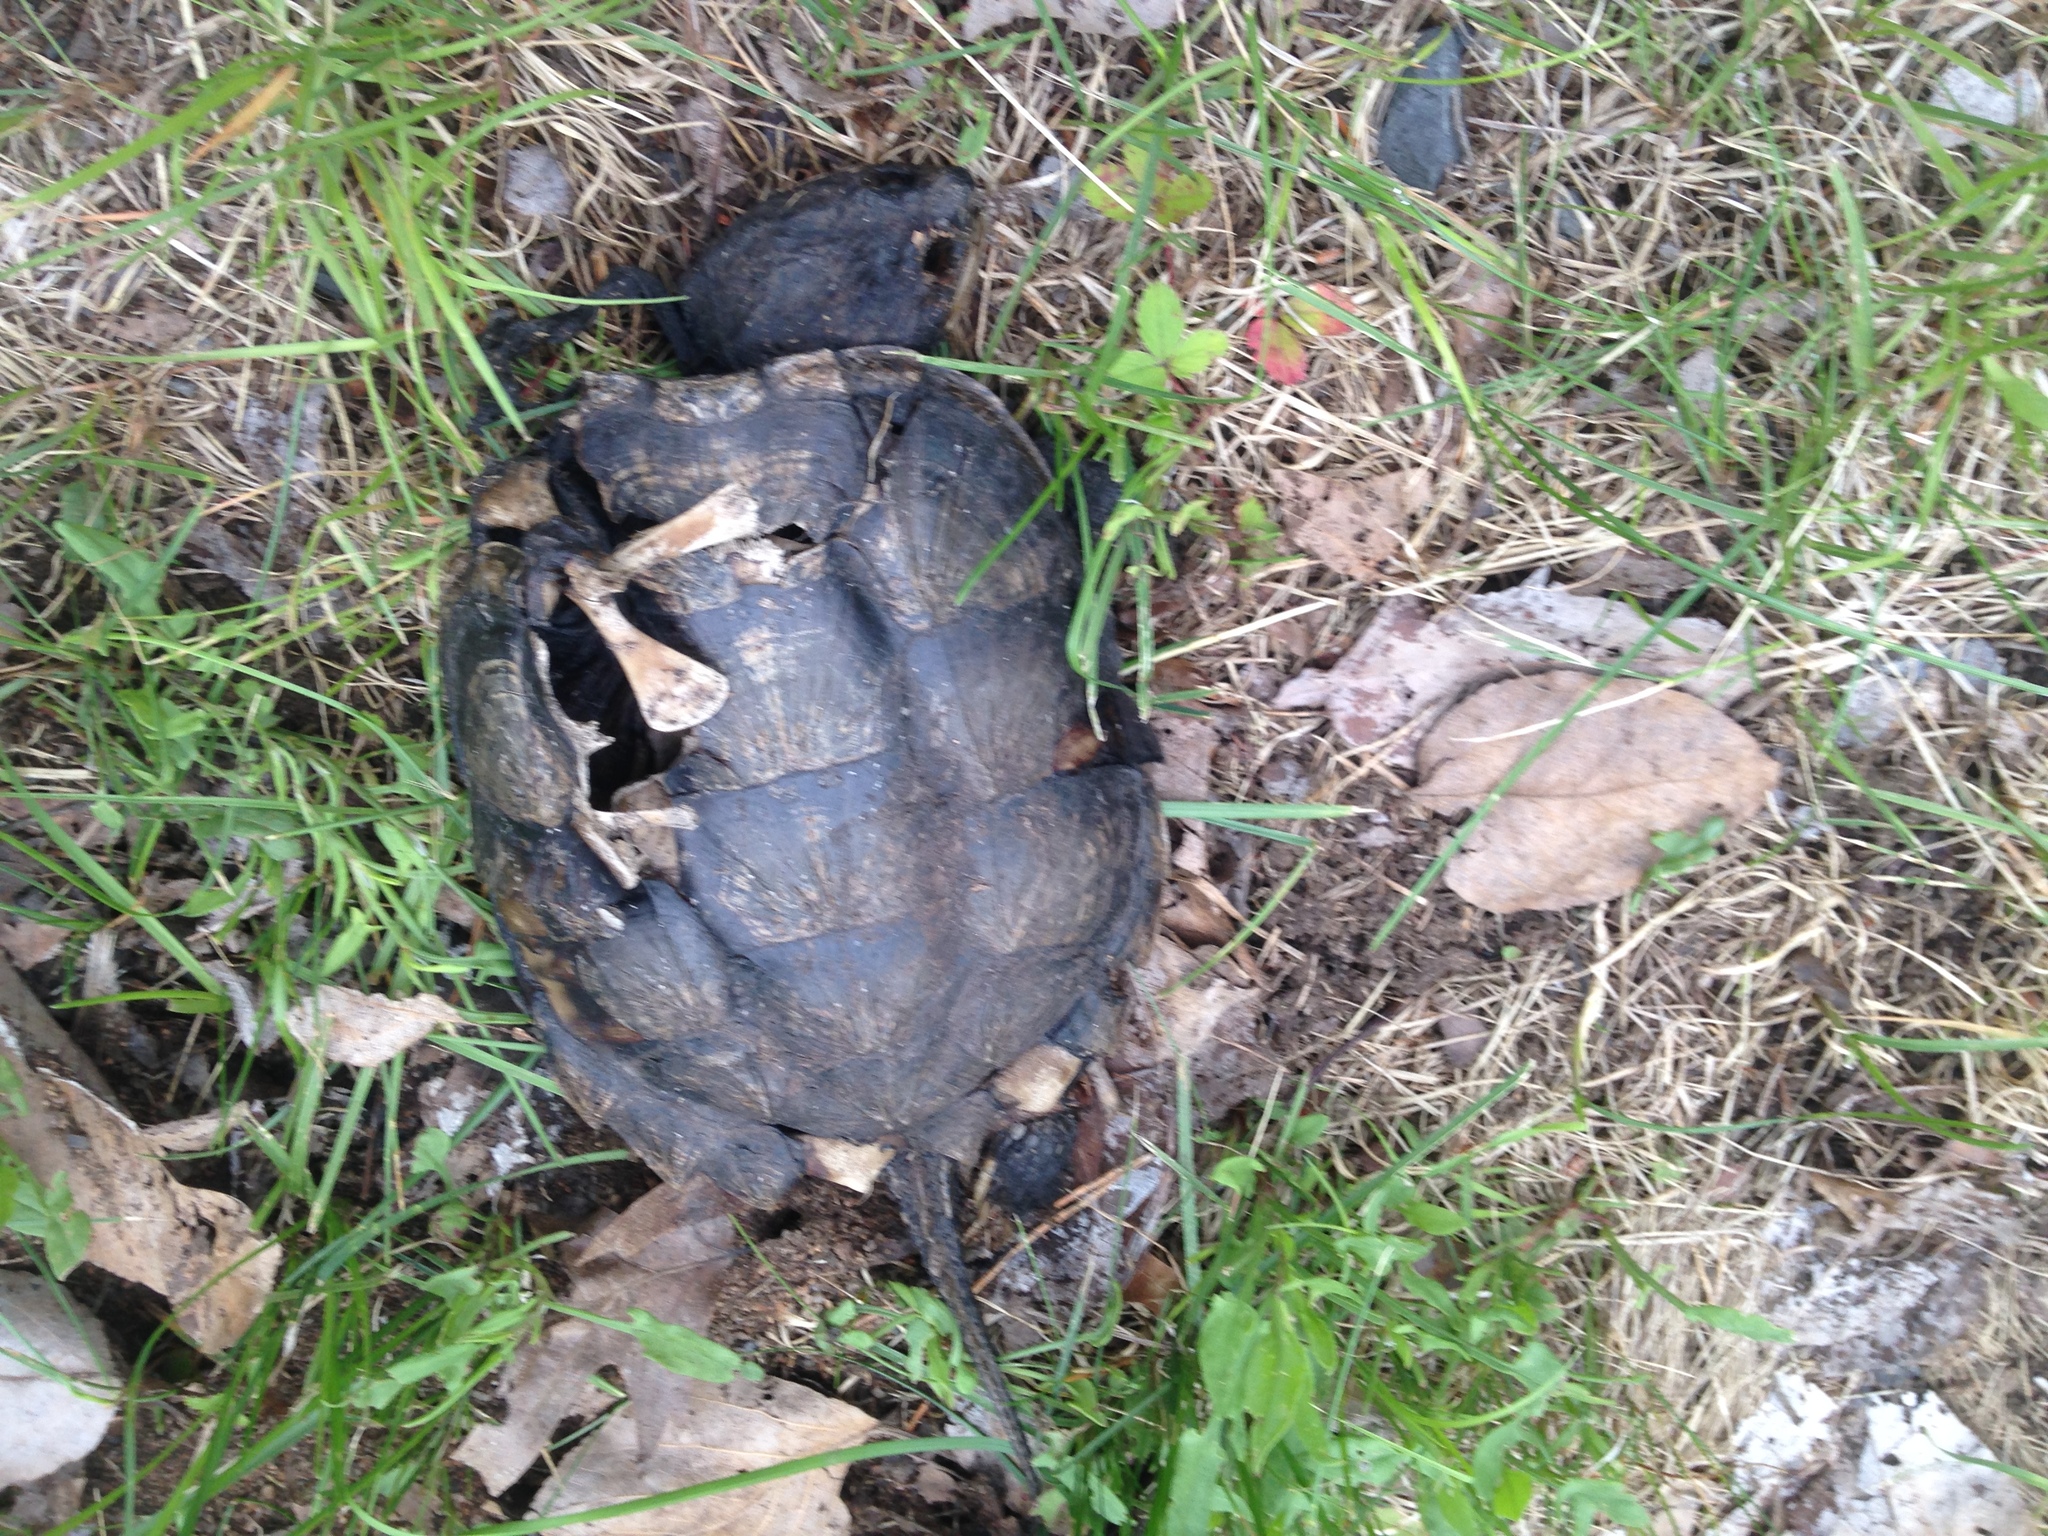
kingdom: Animalia
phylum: Chordata
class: Testudines
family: Chelydridae
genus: Chelydra
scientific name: Chelydra serpentina
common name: Common snapping turtle
